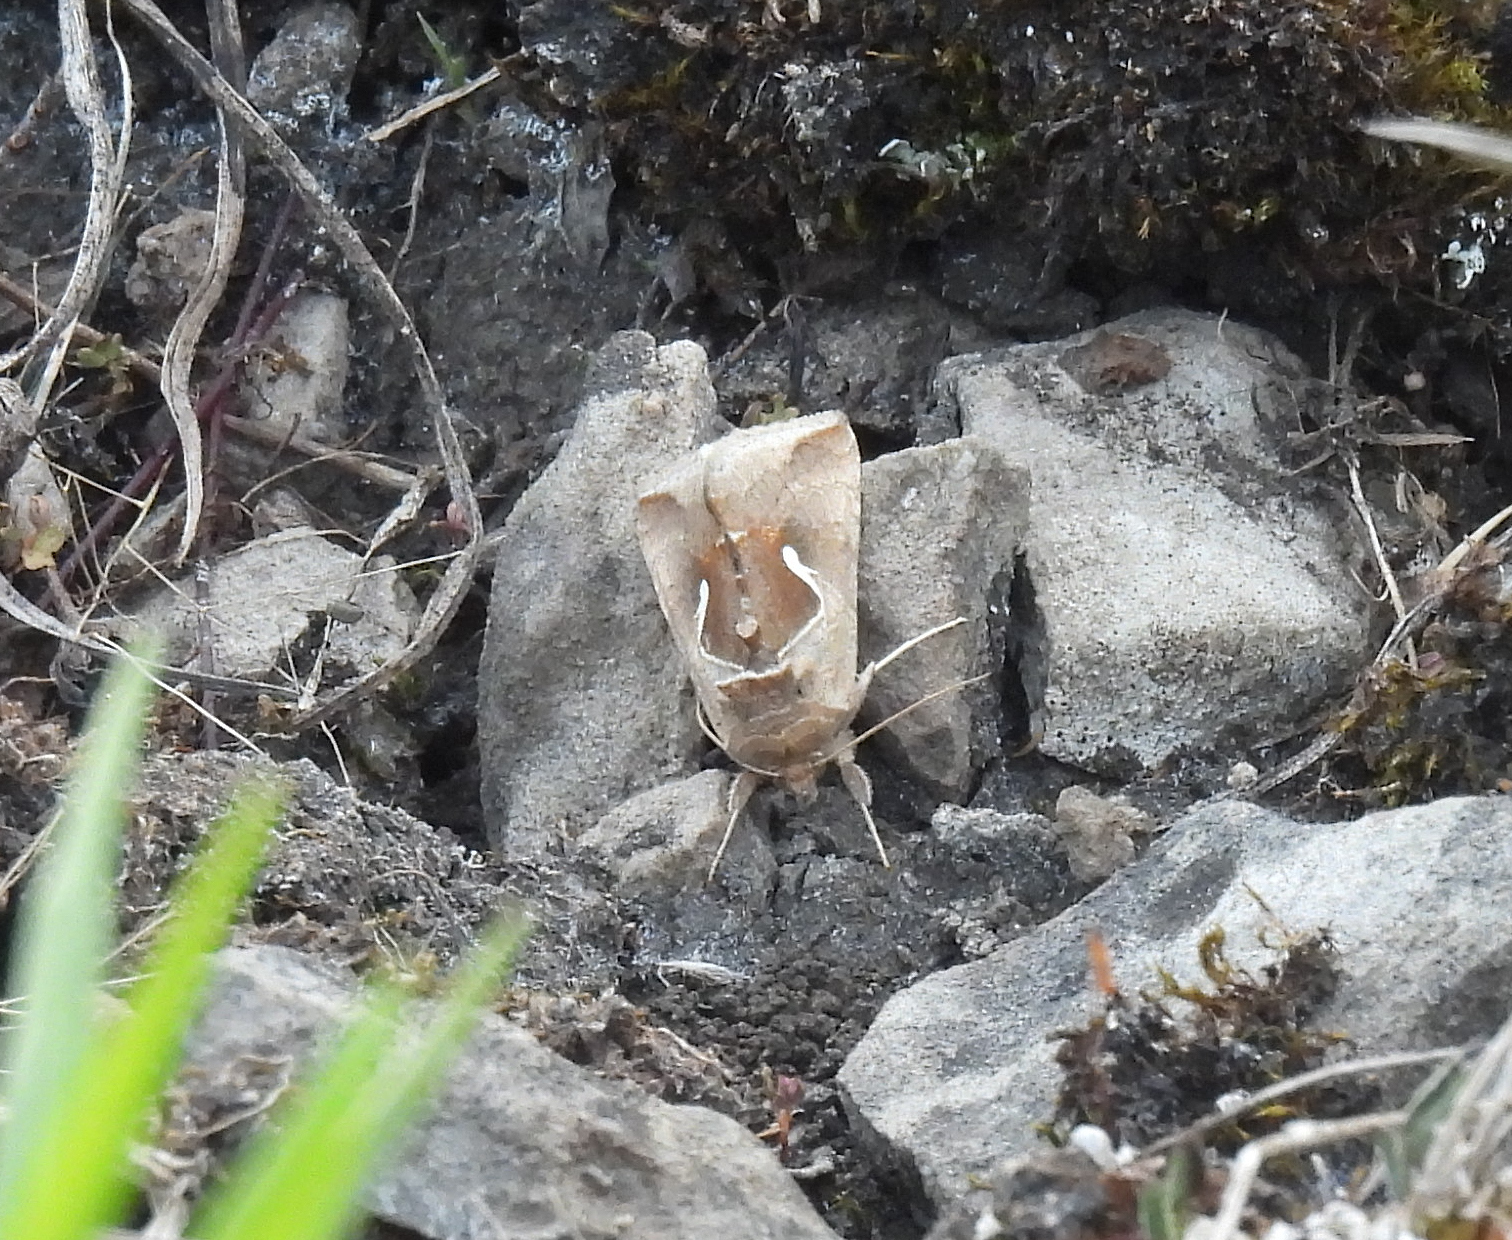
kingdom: Animalia
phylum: Arthropoda
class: Insecta
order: Lepidoptera
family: Noctuidae
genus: Anagrapha
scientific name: Anagrapha falcifera
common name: Celery looper
